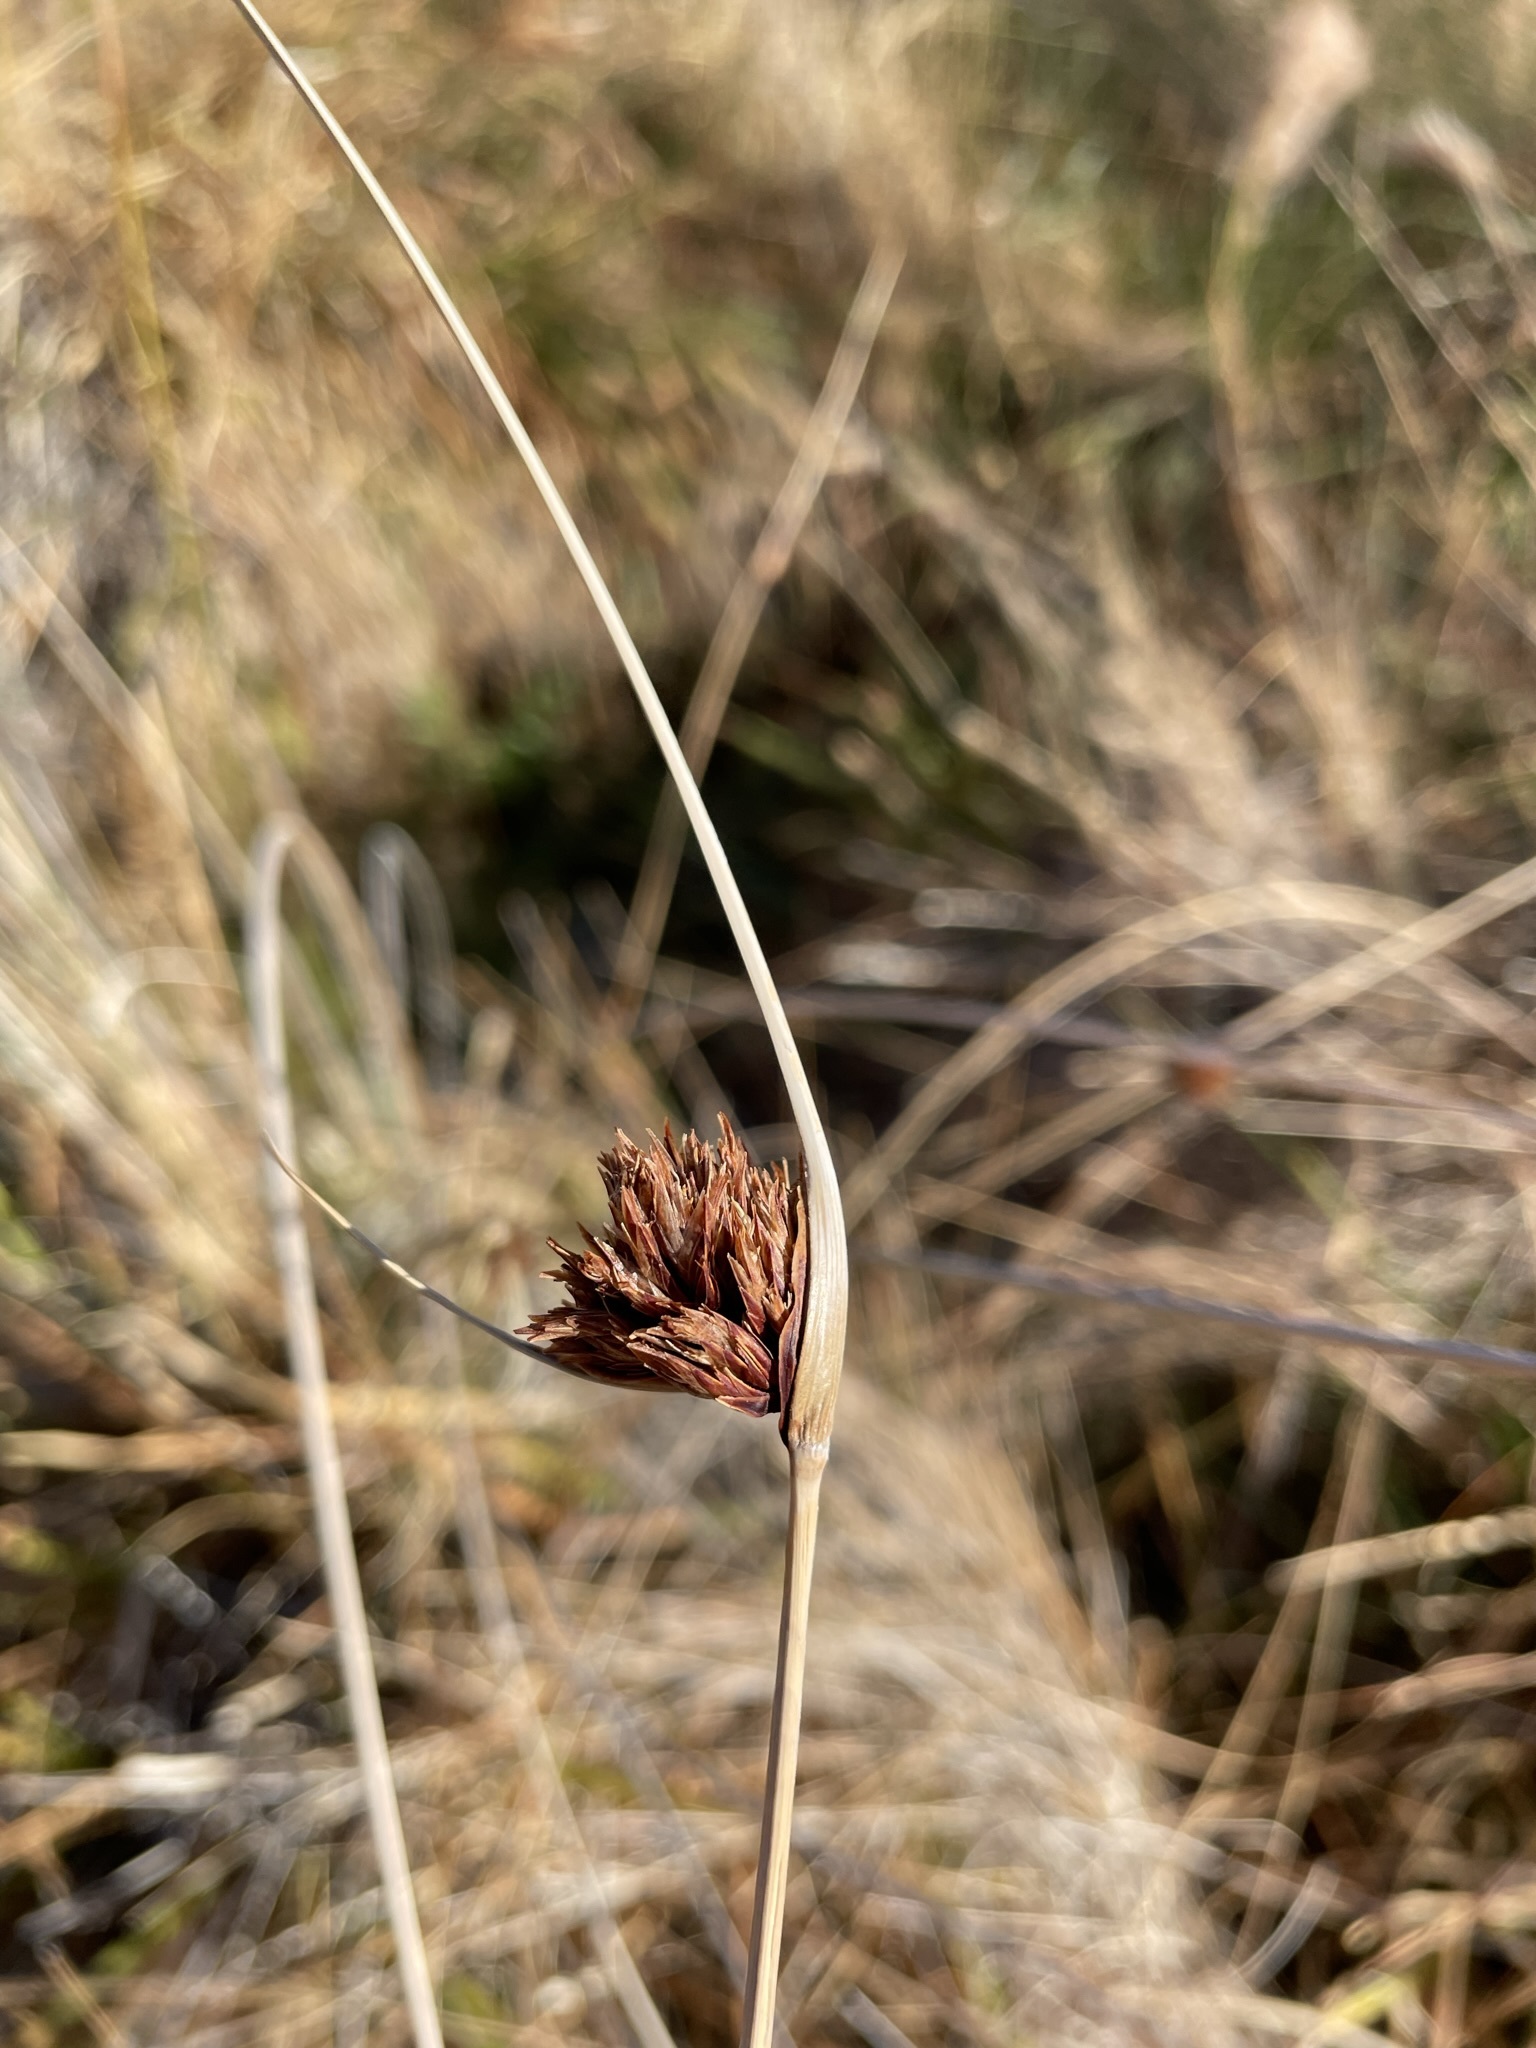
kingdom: Plantae
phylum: Tracheophyta
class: Liliopsida
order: Poales
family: Cyperaceae
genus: Schoenus
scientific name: Schoenus nigricans
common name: Black bog-rush
